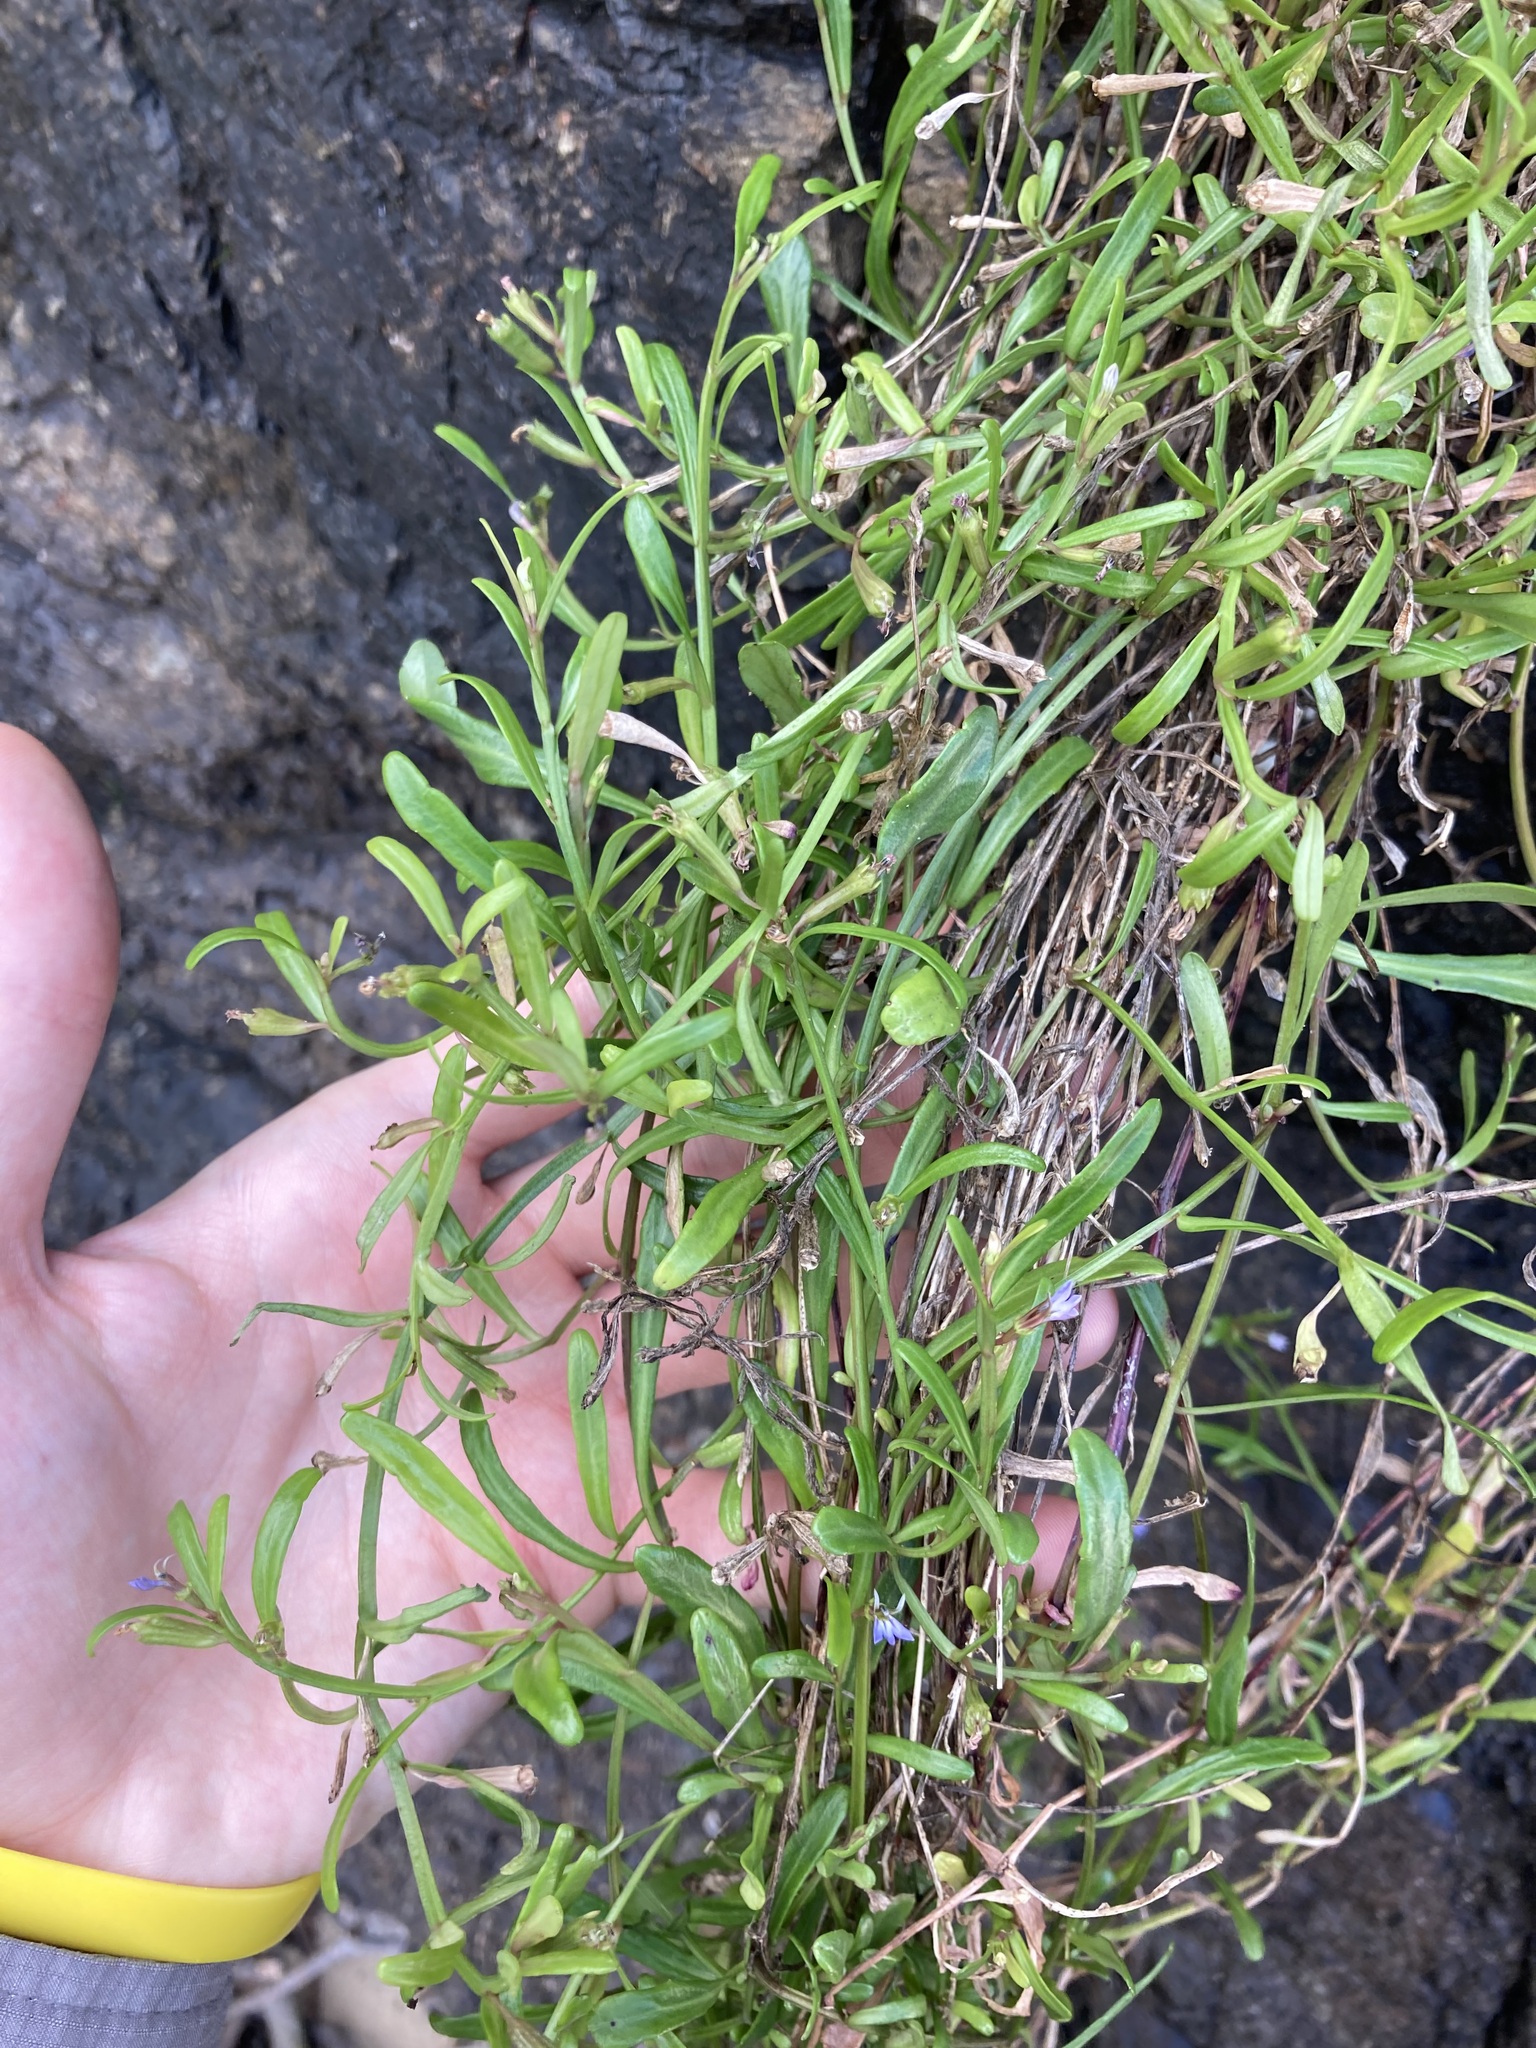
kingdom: Plantae
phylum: Tracheophyta
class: Magnoliopsida
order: Asterales
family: Campanulaceae
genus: Lobelia
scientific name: Lobelia anceps
